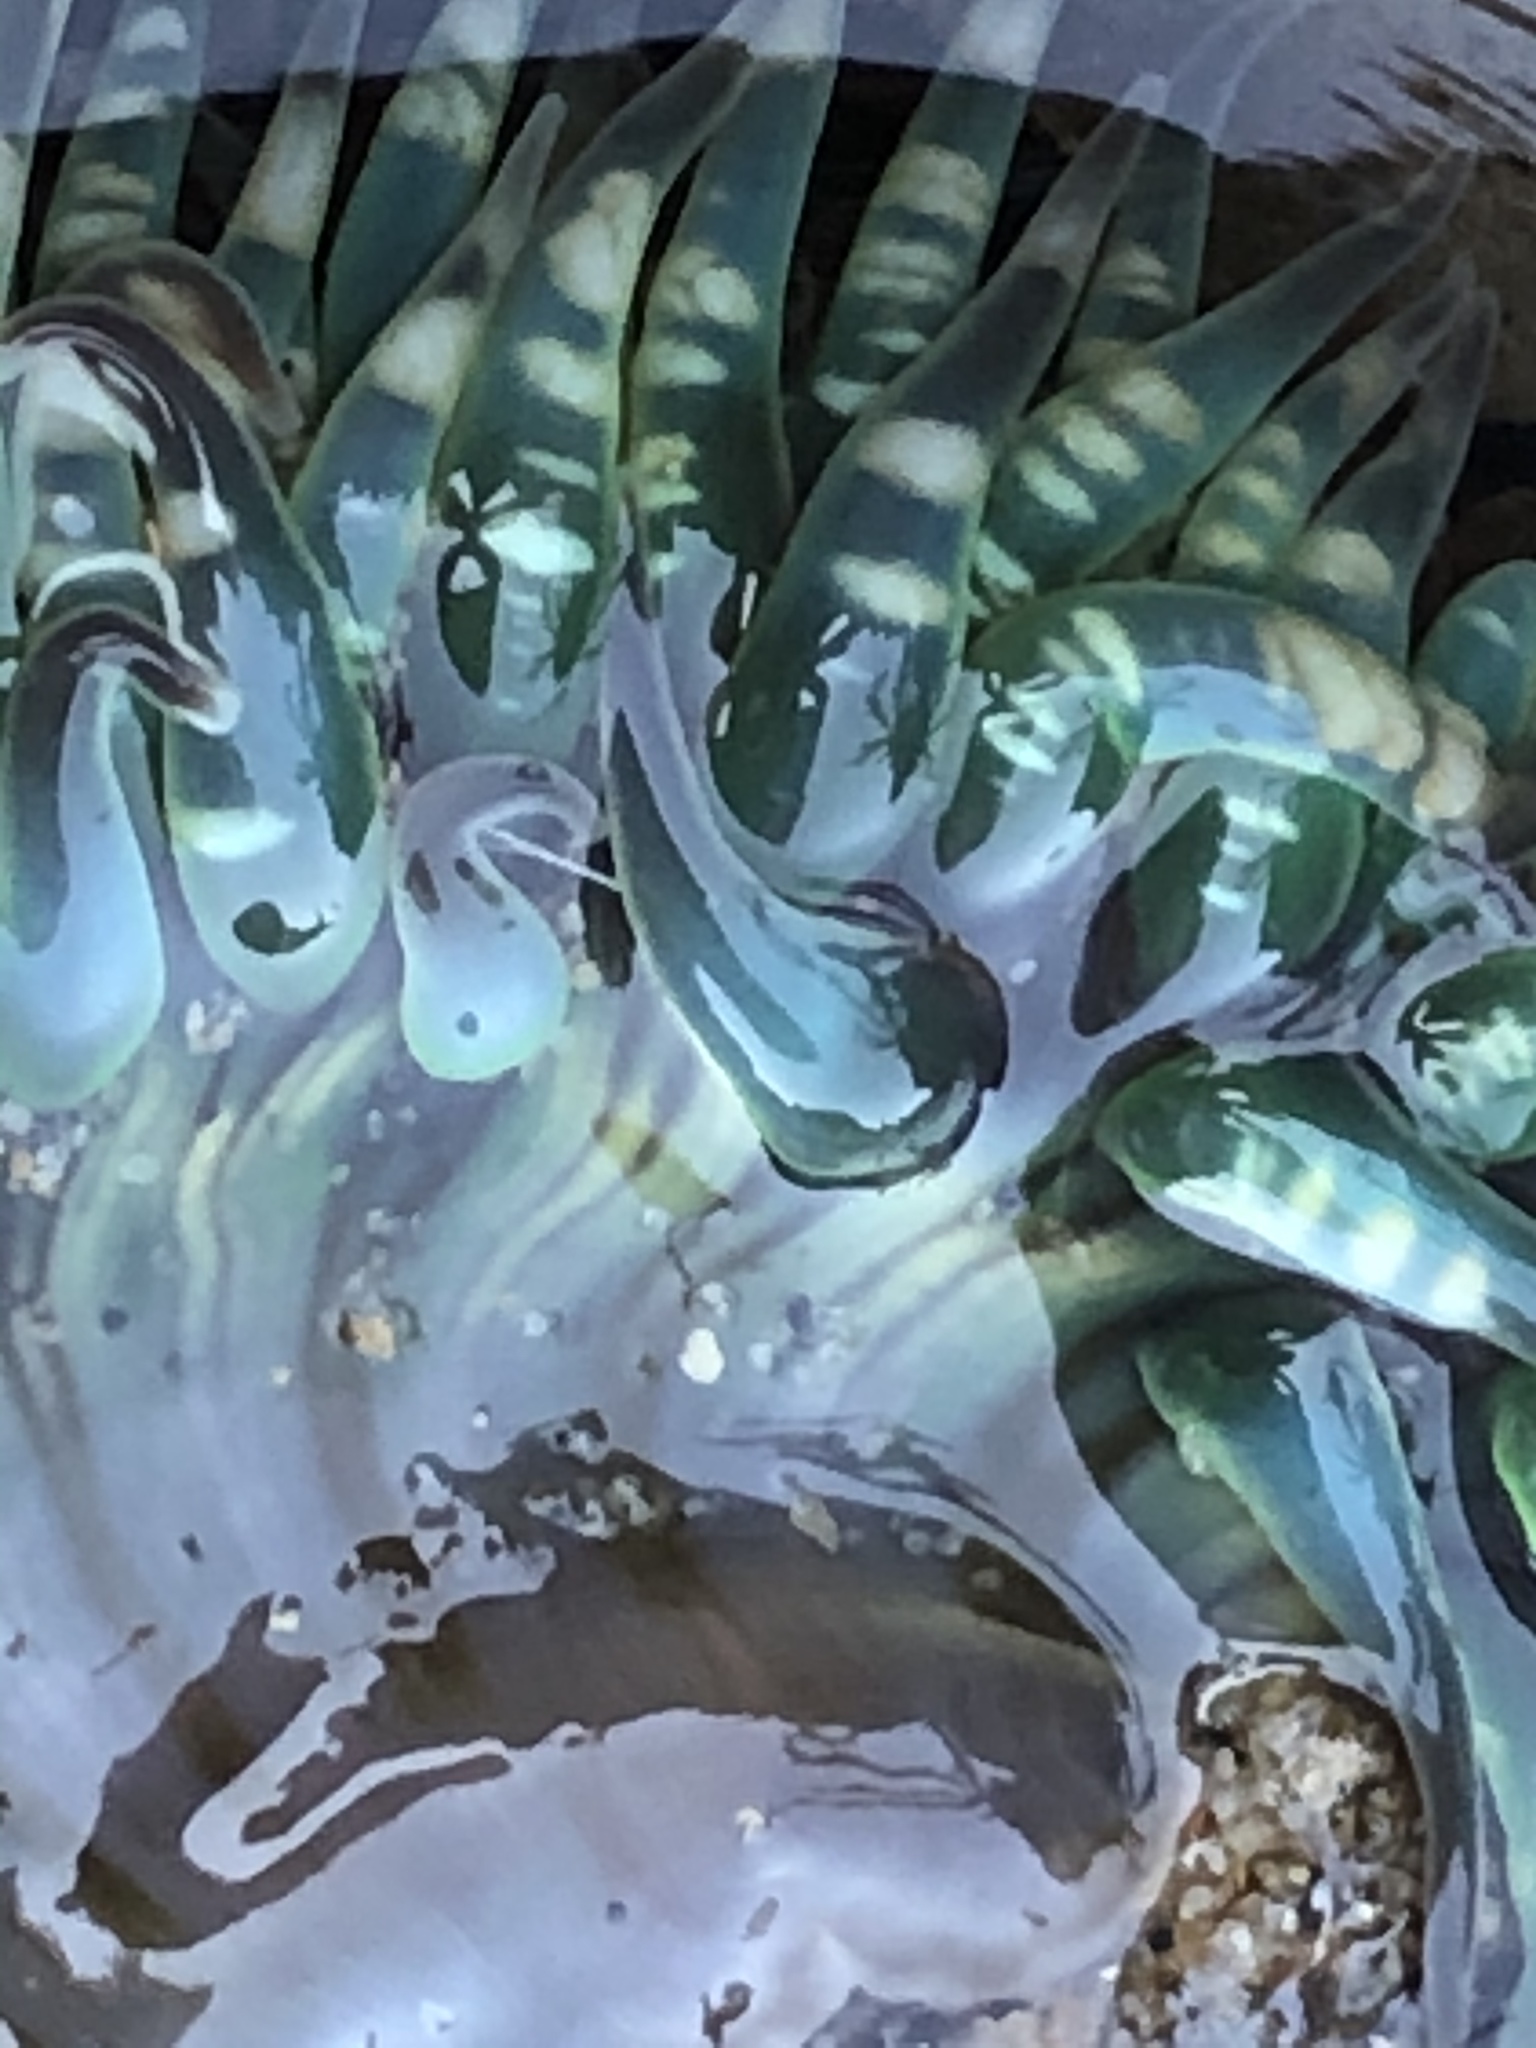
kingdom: Animalia
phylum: Cnidaria
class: Anthozoa
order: Actiniaria
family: Actiniidae
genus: Anthopleura
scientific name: Anthopleura sola
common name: Sun anemone
